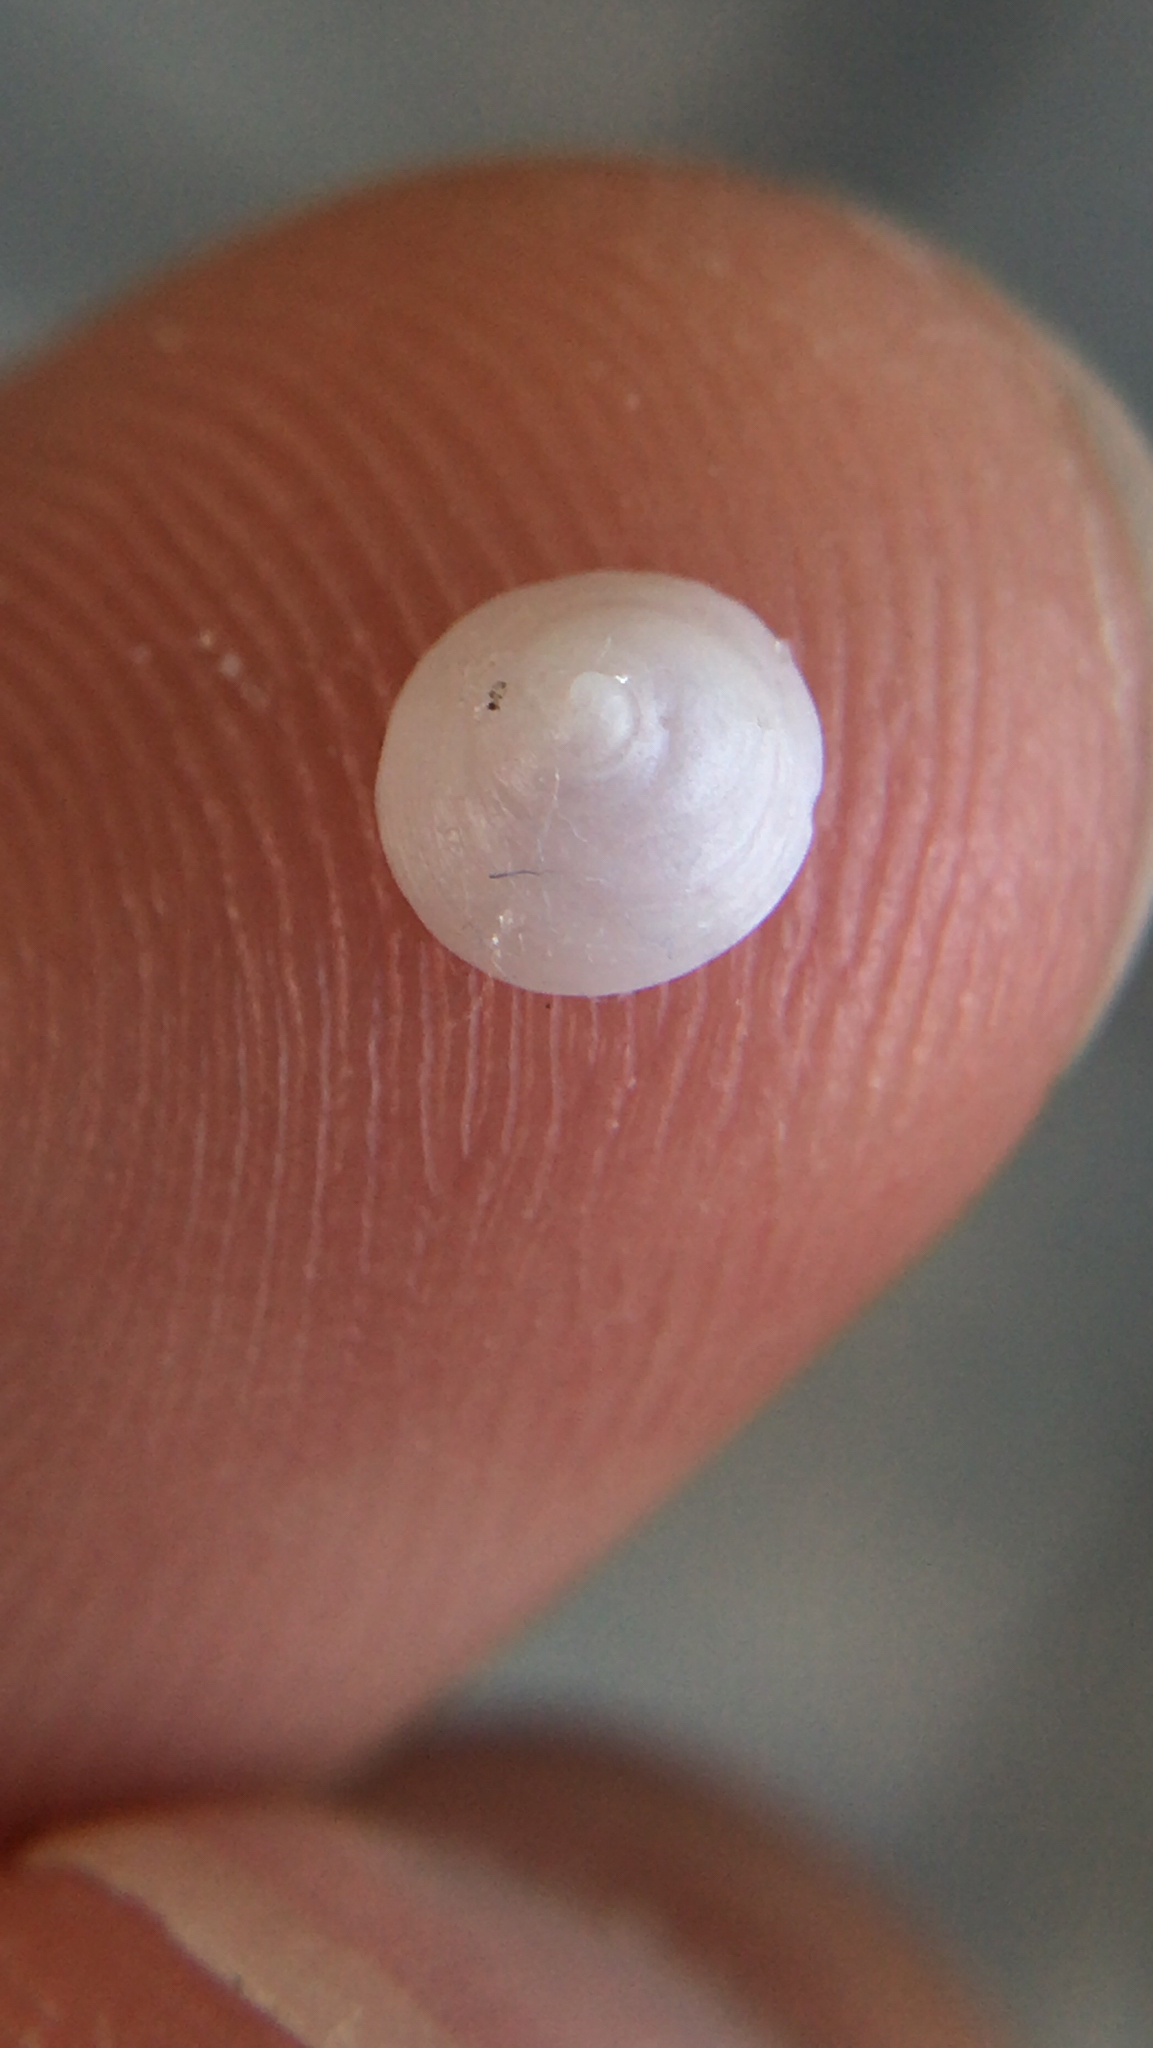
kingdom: Animalia
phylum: Mollusca
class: Gastropoda
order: Littorinimorpha
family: Calyptraeidae
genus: Calyptraea
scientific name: Calyptraea centralis
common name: Circular chinese hat
